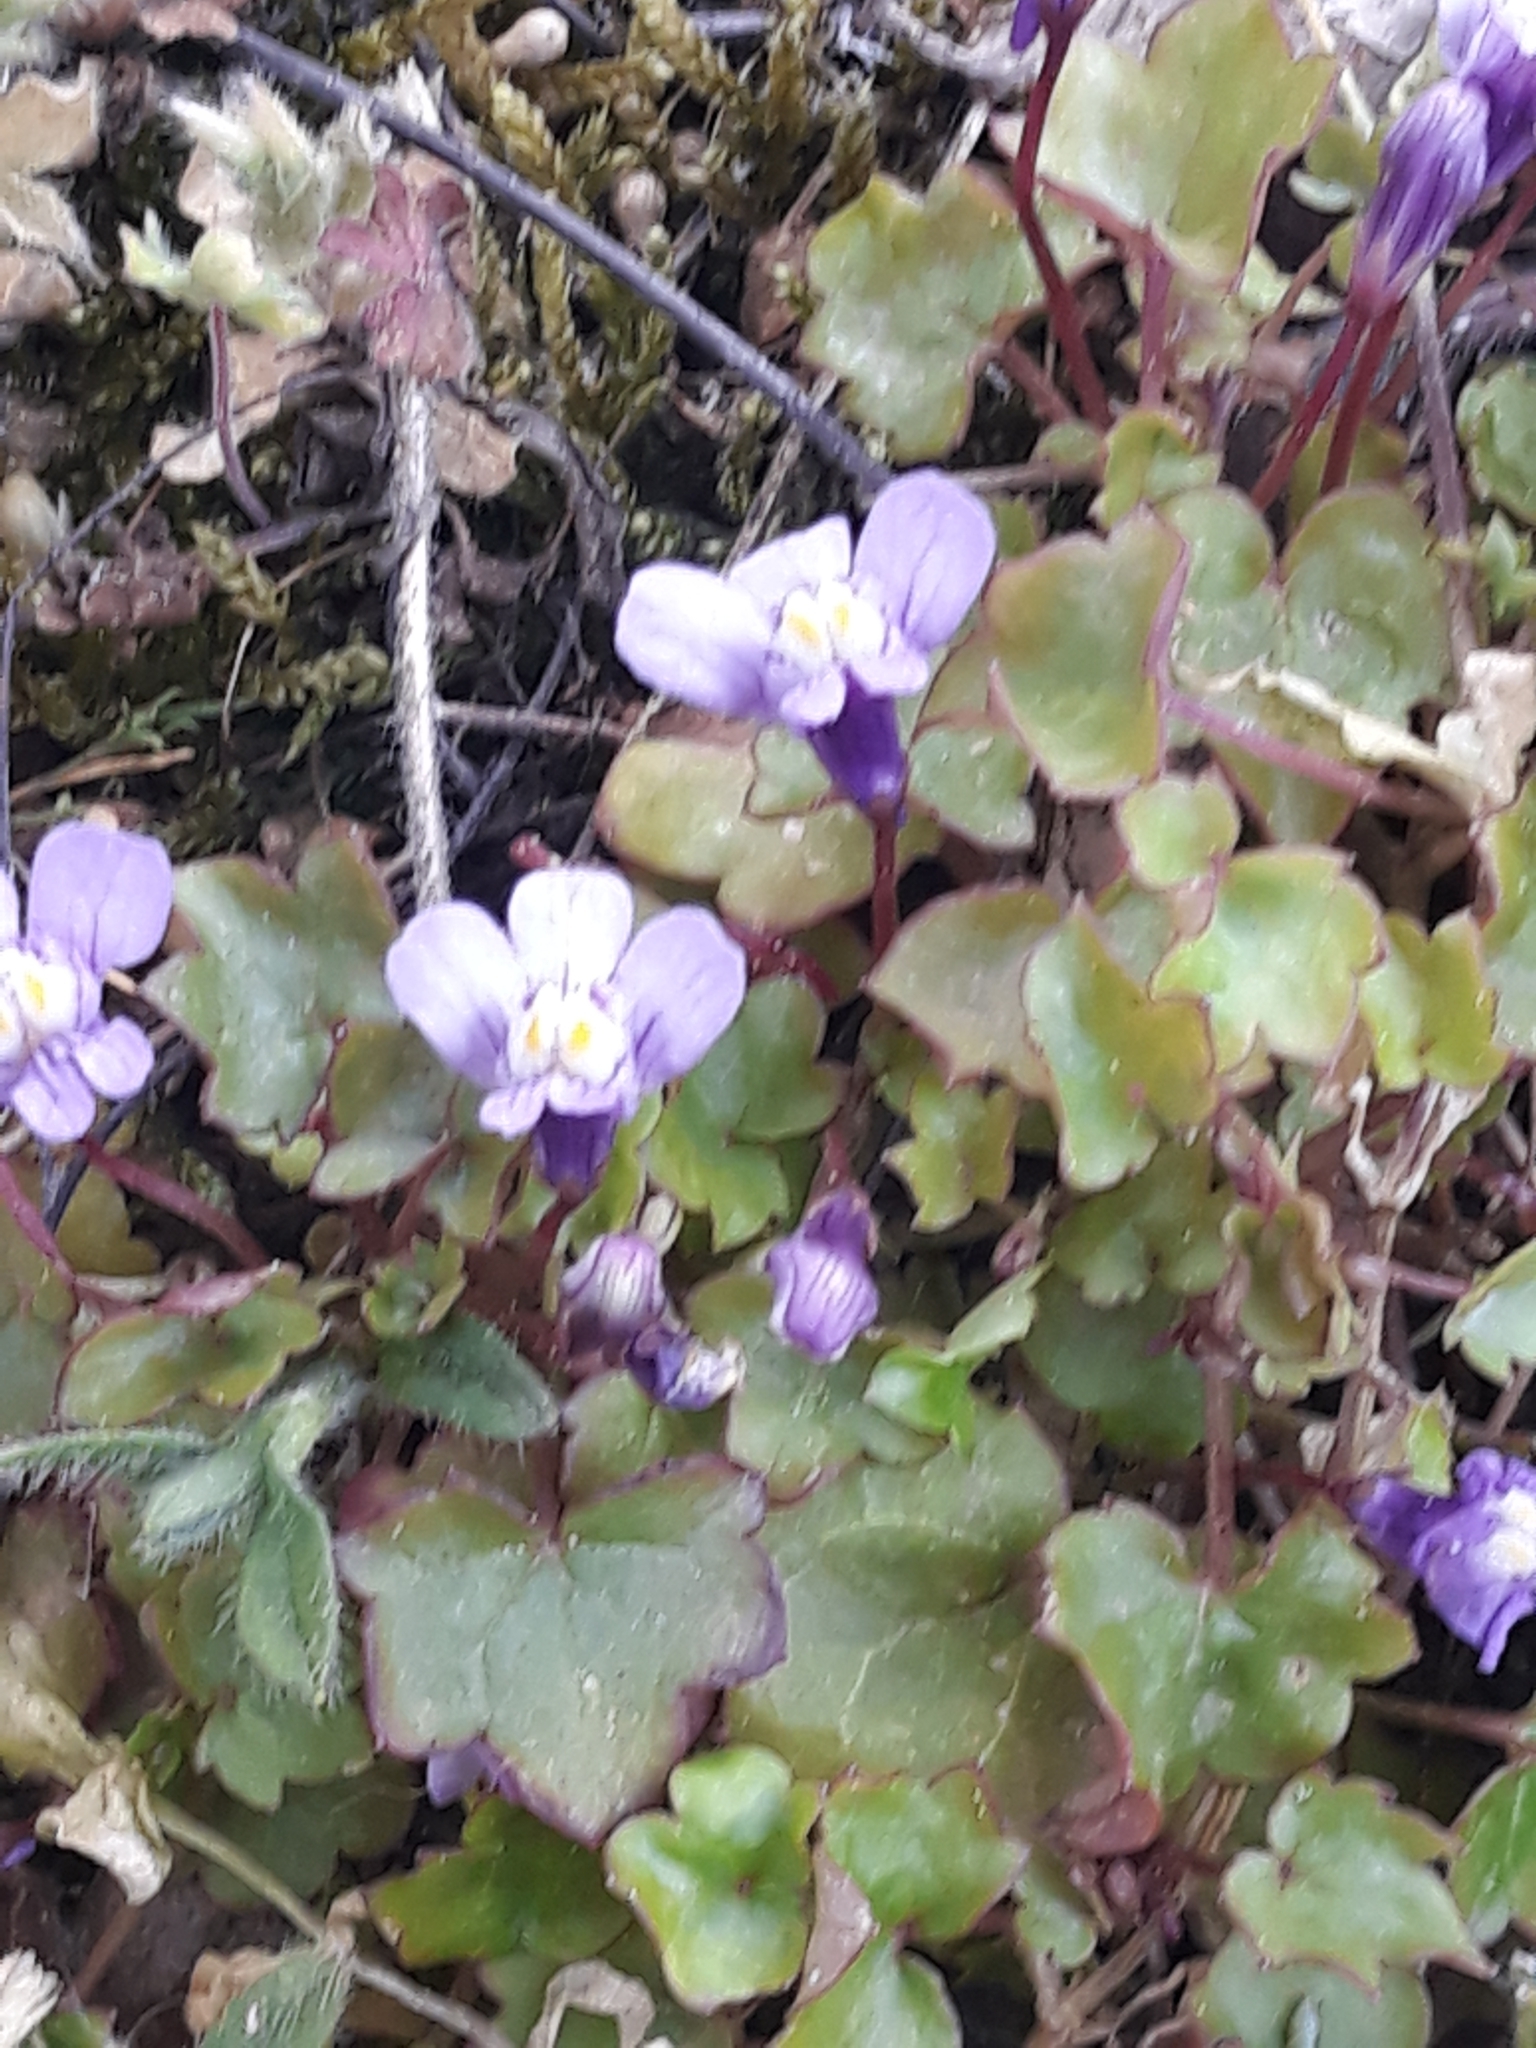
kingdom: Plantae
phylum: Tracheophyta
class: Magnoliopsida
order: Lamiales
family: Plantaginaceae
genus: Cymbalaria
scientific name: Cymbalaria muralis
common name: Ivy-leaved toadflax
